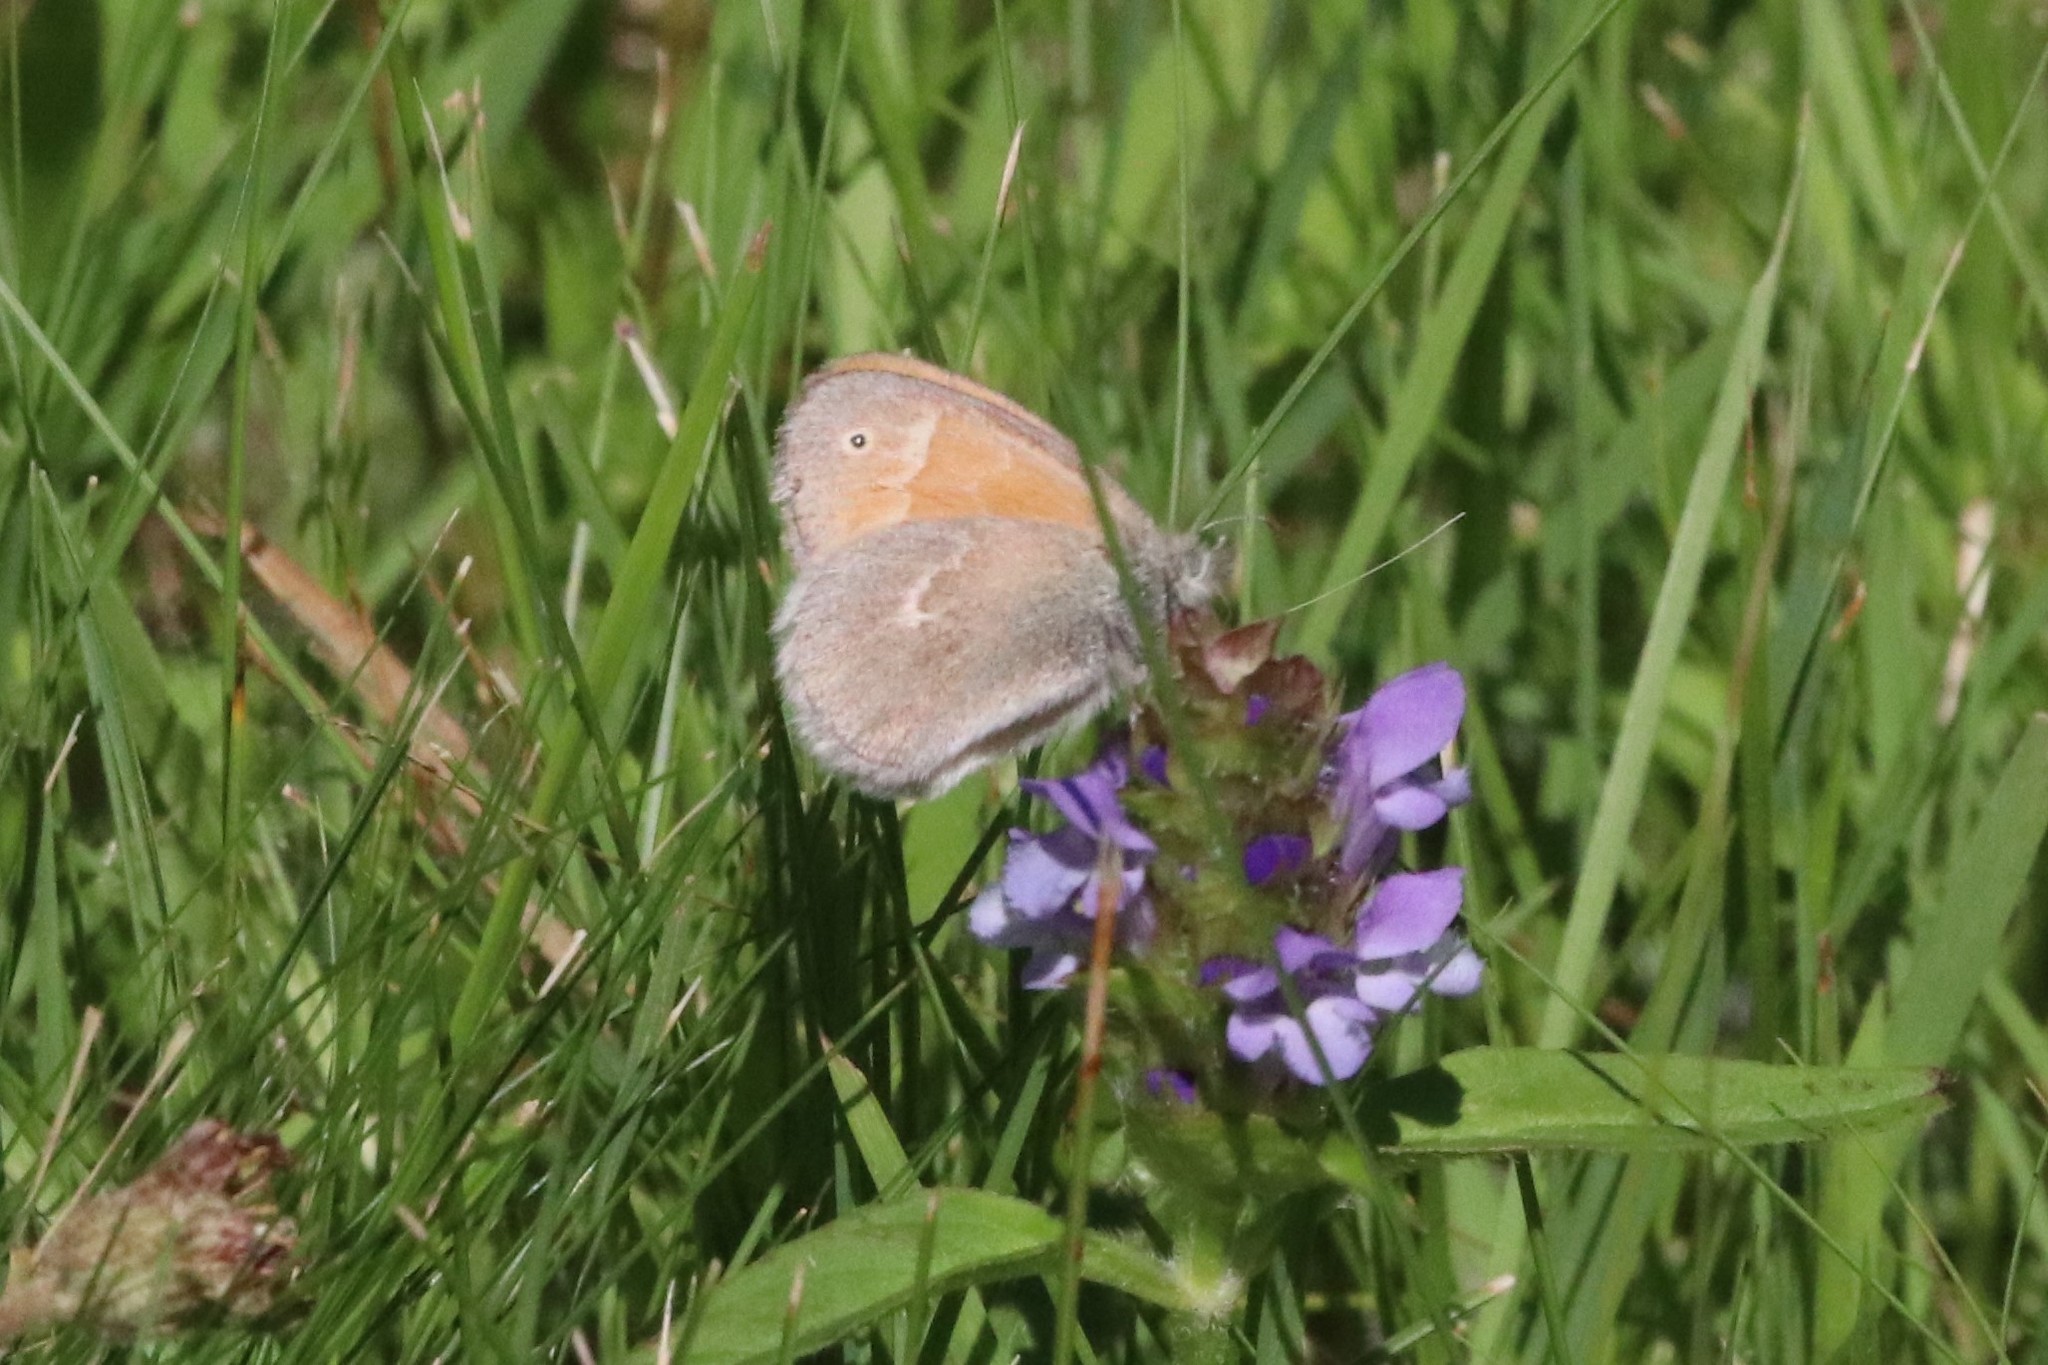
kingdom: Animalia
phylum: Arthropoda
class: Insecta
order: Lepidoptera
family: Nymphalidae
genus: Coenonympha
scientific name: Coenonympha california
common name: Common ringlet
